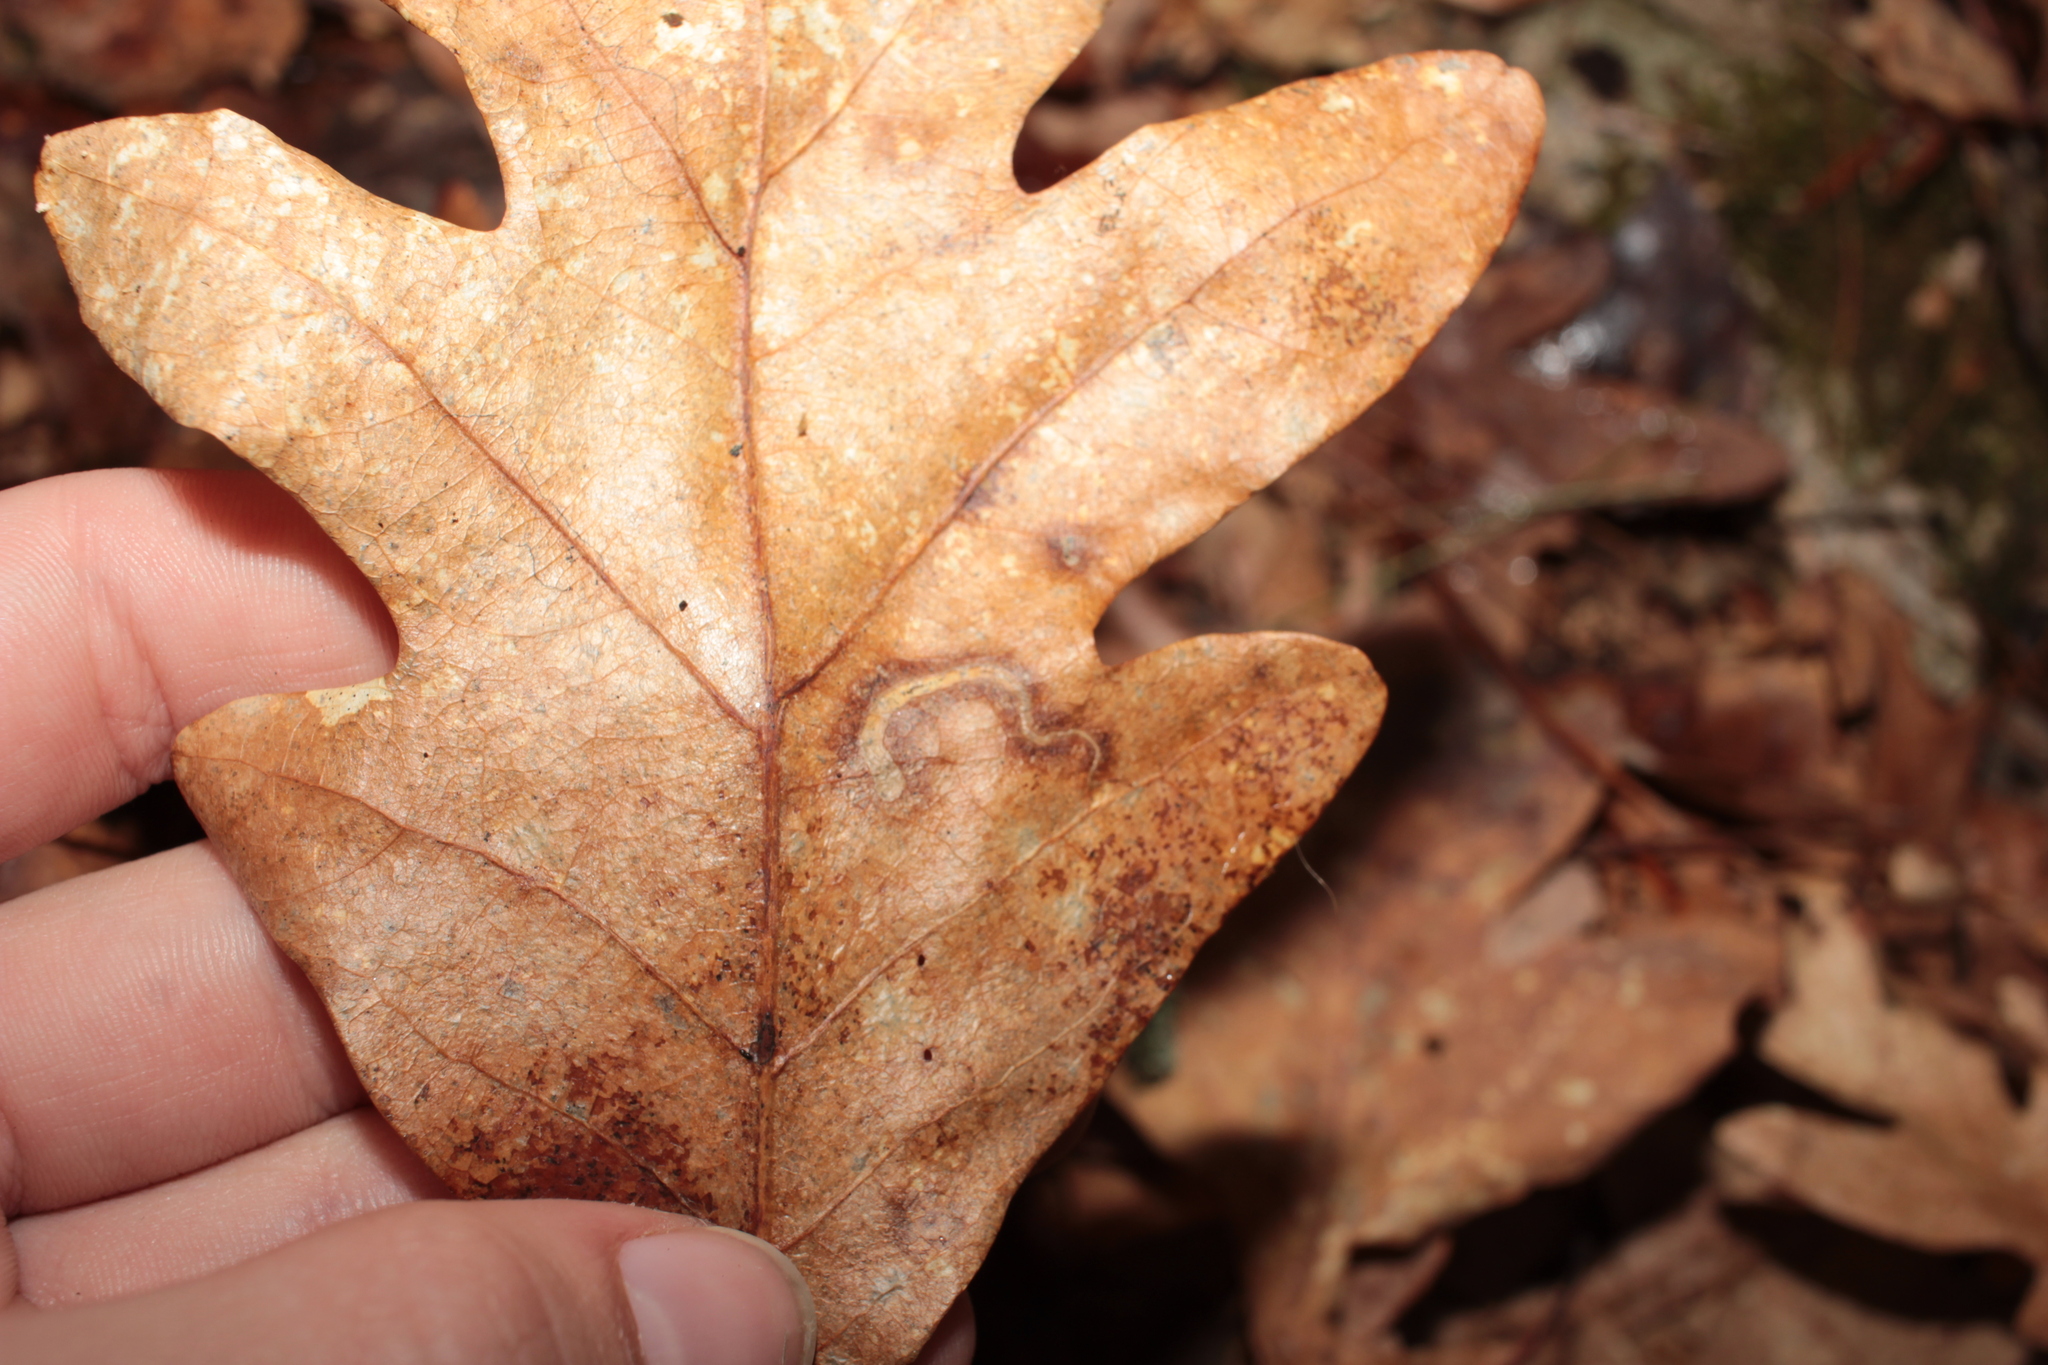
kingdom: Animalia
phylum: Arthropoda
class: Insecta
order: Lepidoptera
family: Nepticulidae
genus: Stigmella
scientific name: Stigmella
